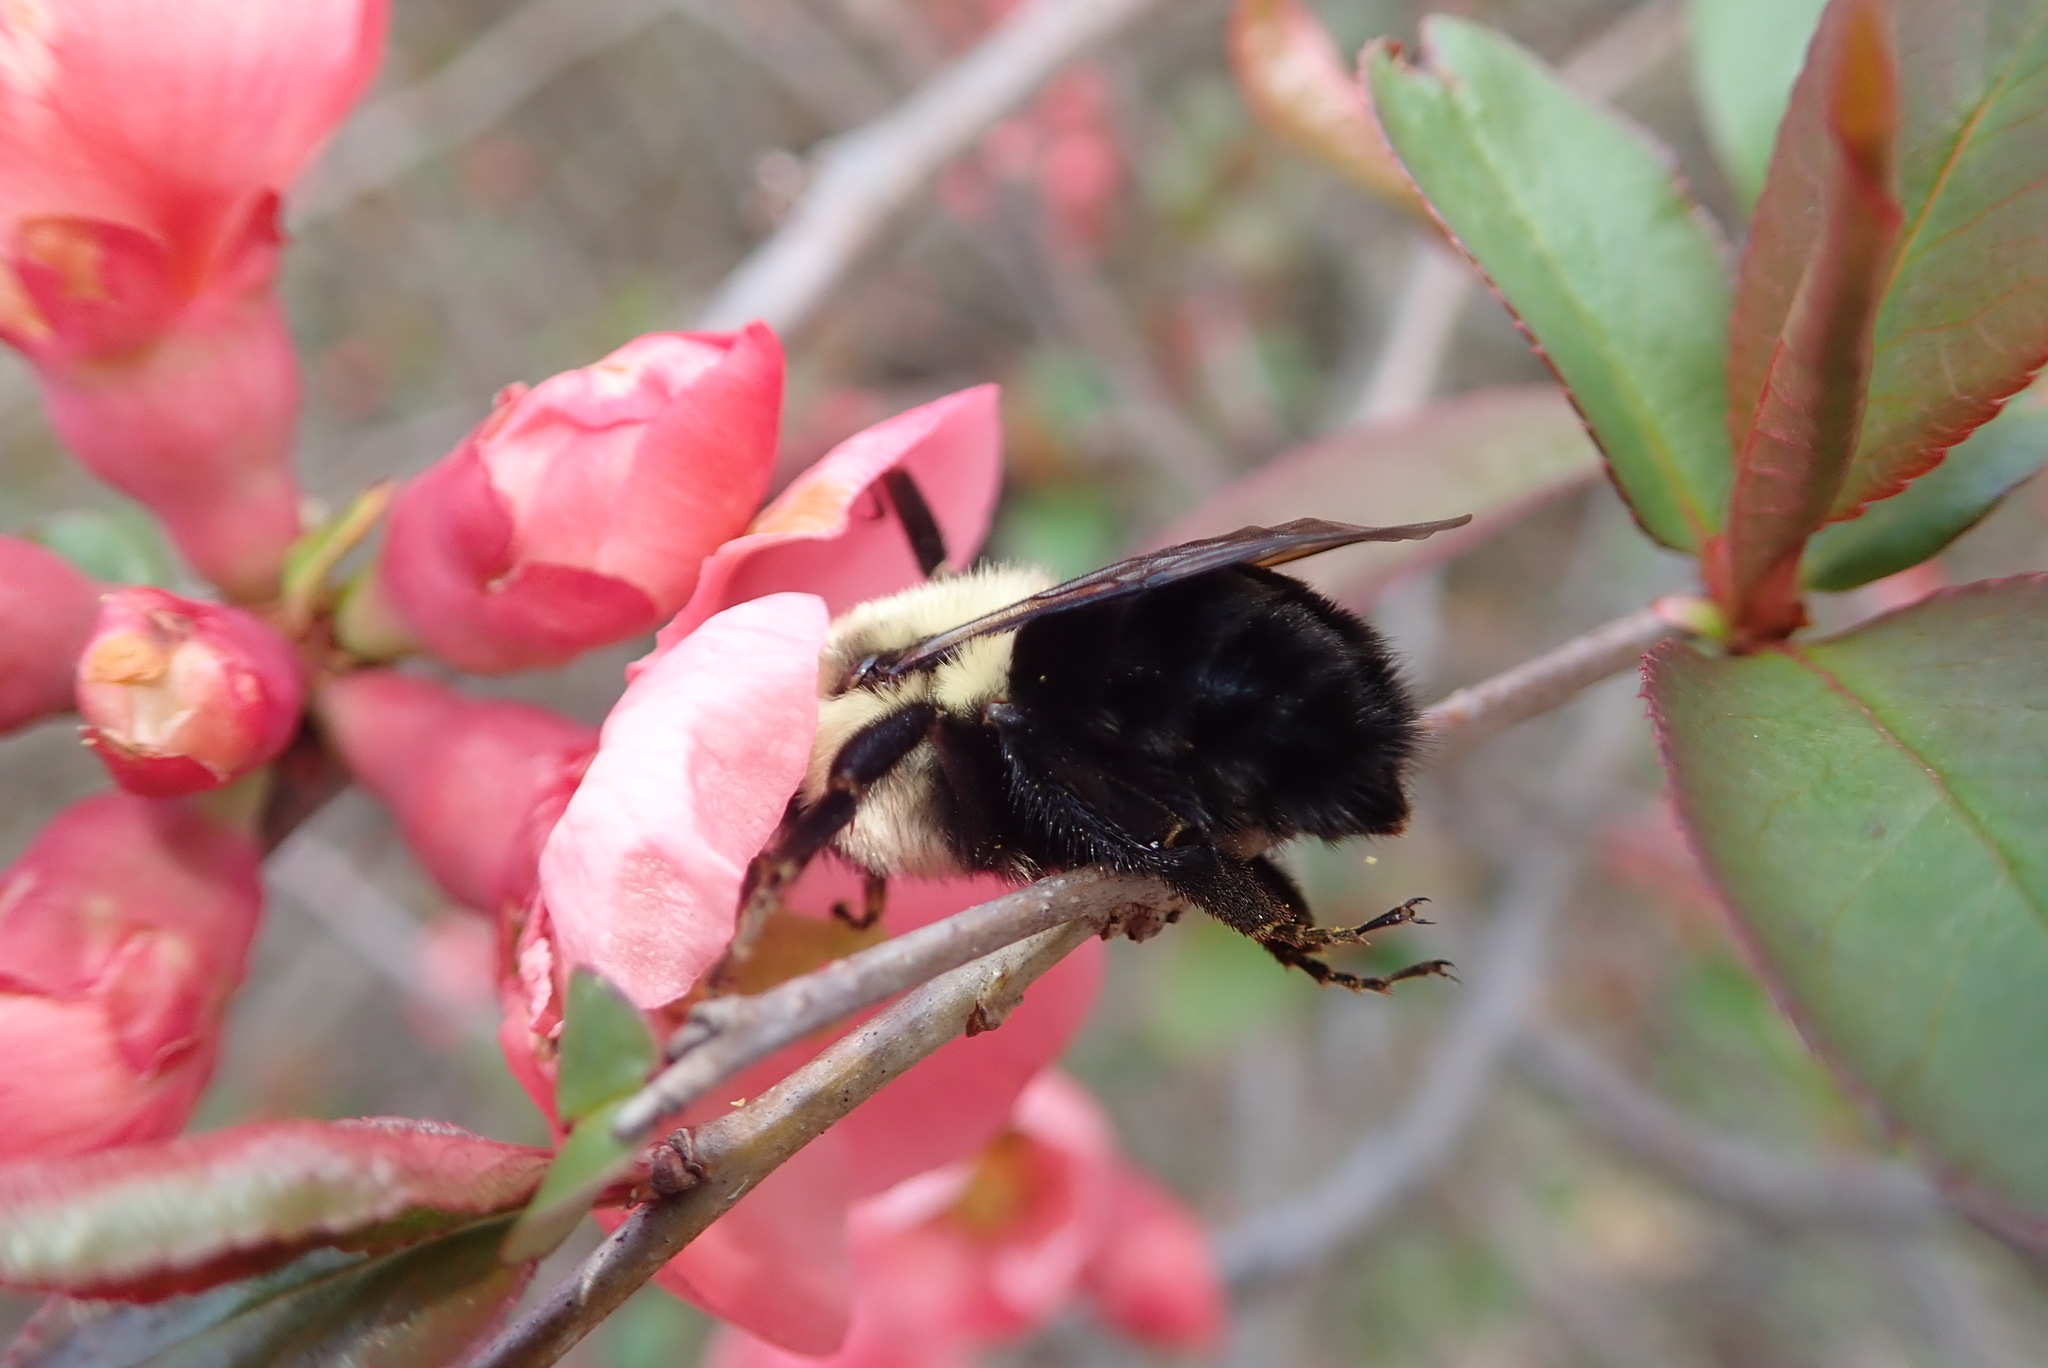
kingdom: Animalia
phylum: Arthropoda
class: Insecta
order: Hymenoptera
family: Apidae
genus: Bombus
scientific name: Bombus
